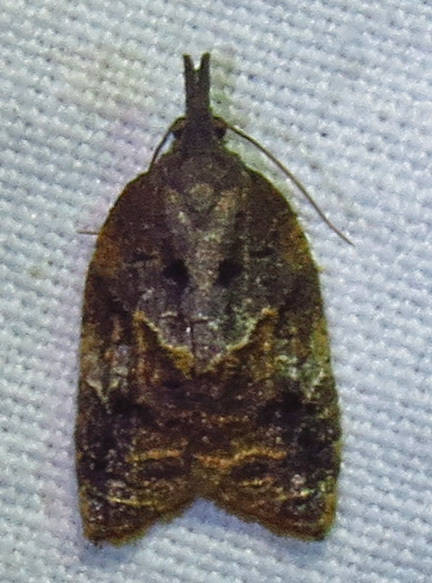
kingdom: Animalia
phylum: Arthropoda
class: Insecta
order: Lepidoptera
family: Tortricidae
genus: Platynota
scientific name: Platynota idaeusalis
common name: Tufted apple bud moth
